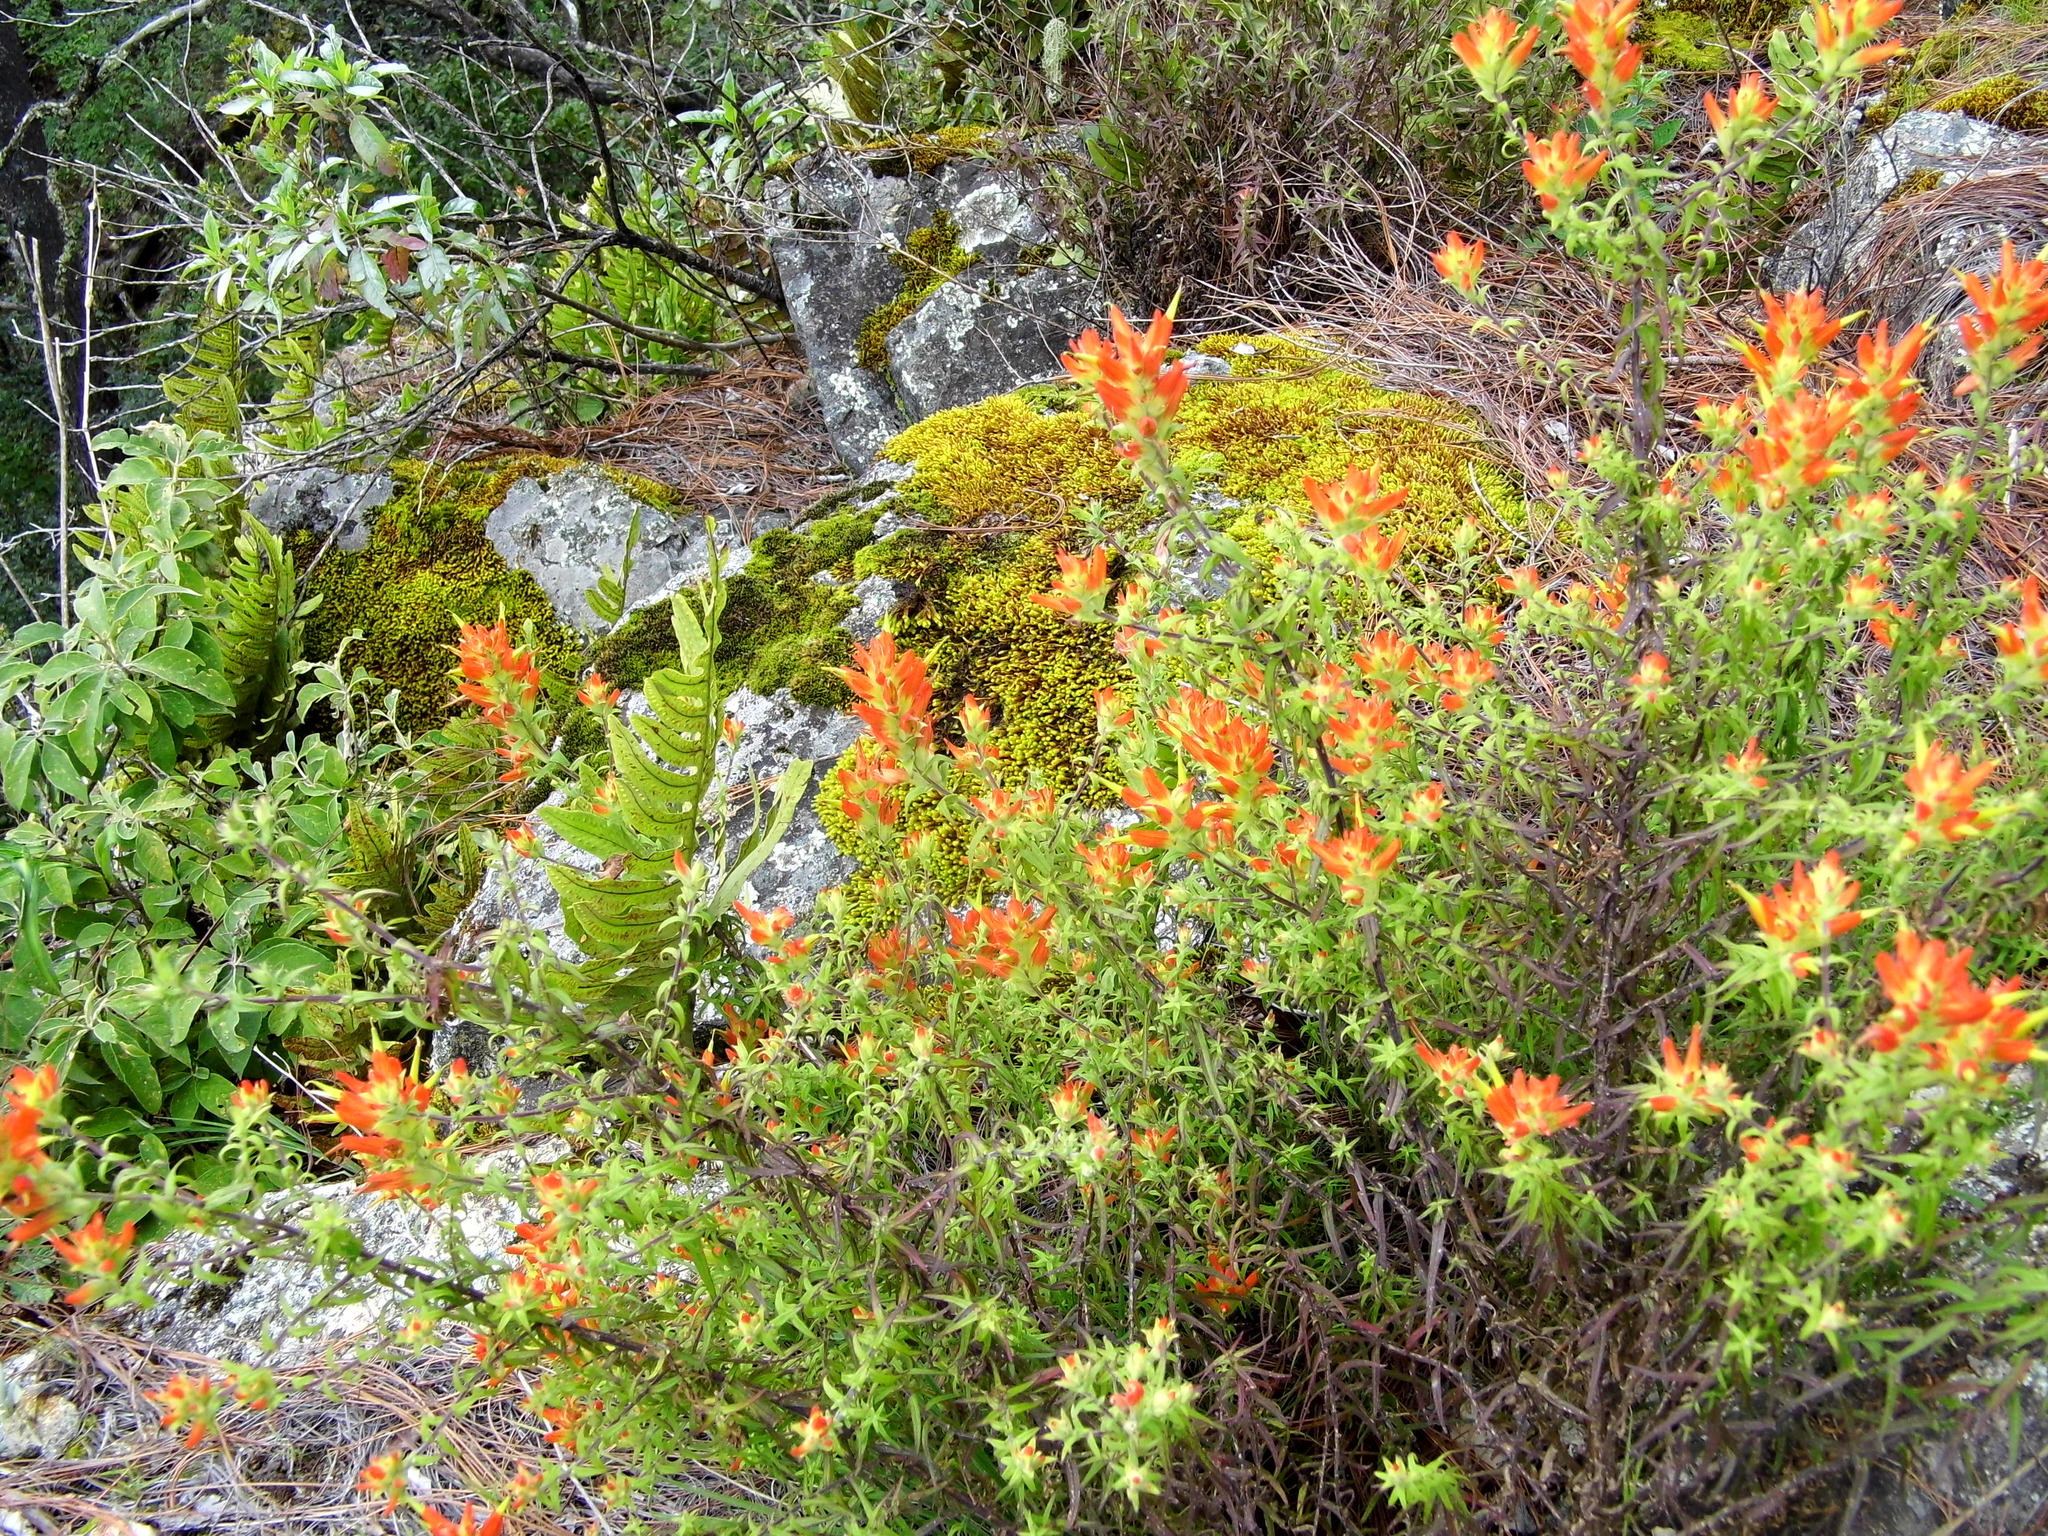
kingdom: Plantae
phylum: Tracheophyta
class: Magnoliopsida
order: Lamiales
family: Orobanchaceae
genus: Castilleja
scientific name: Castilleja tenuiflora
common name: Santa catalina indian paintbrush
